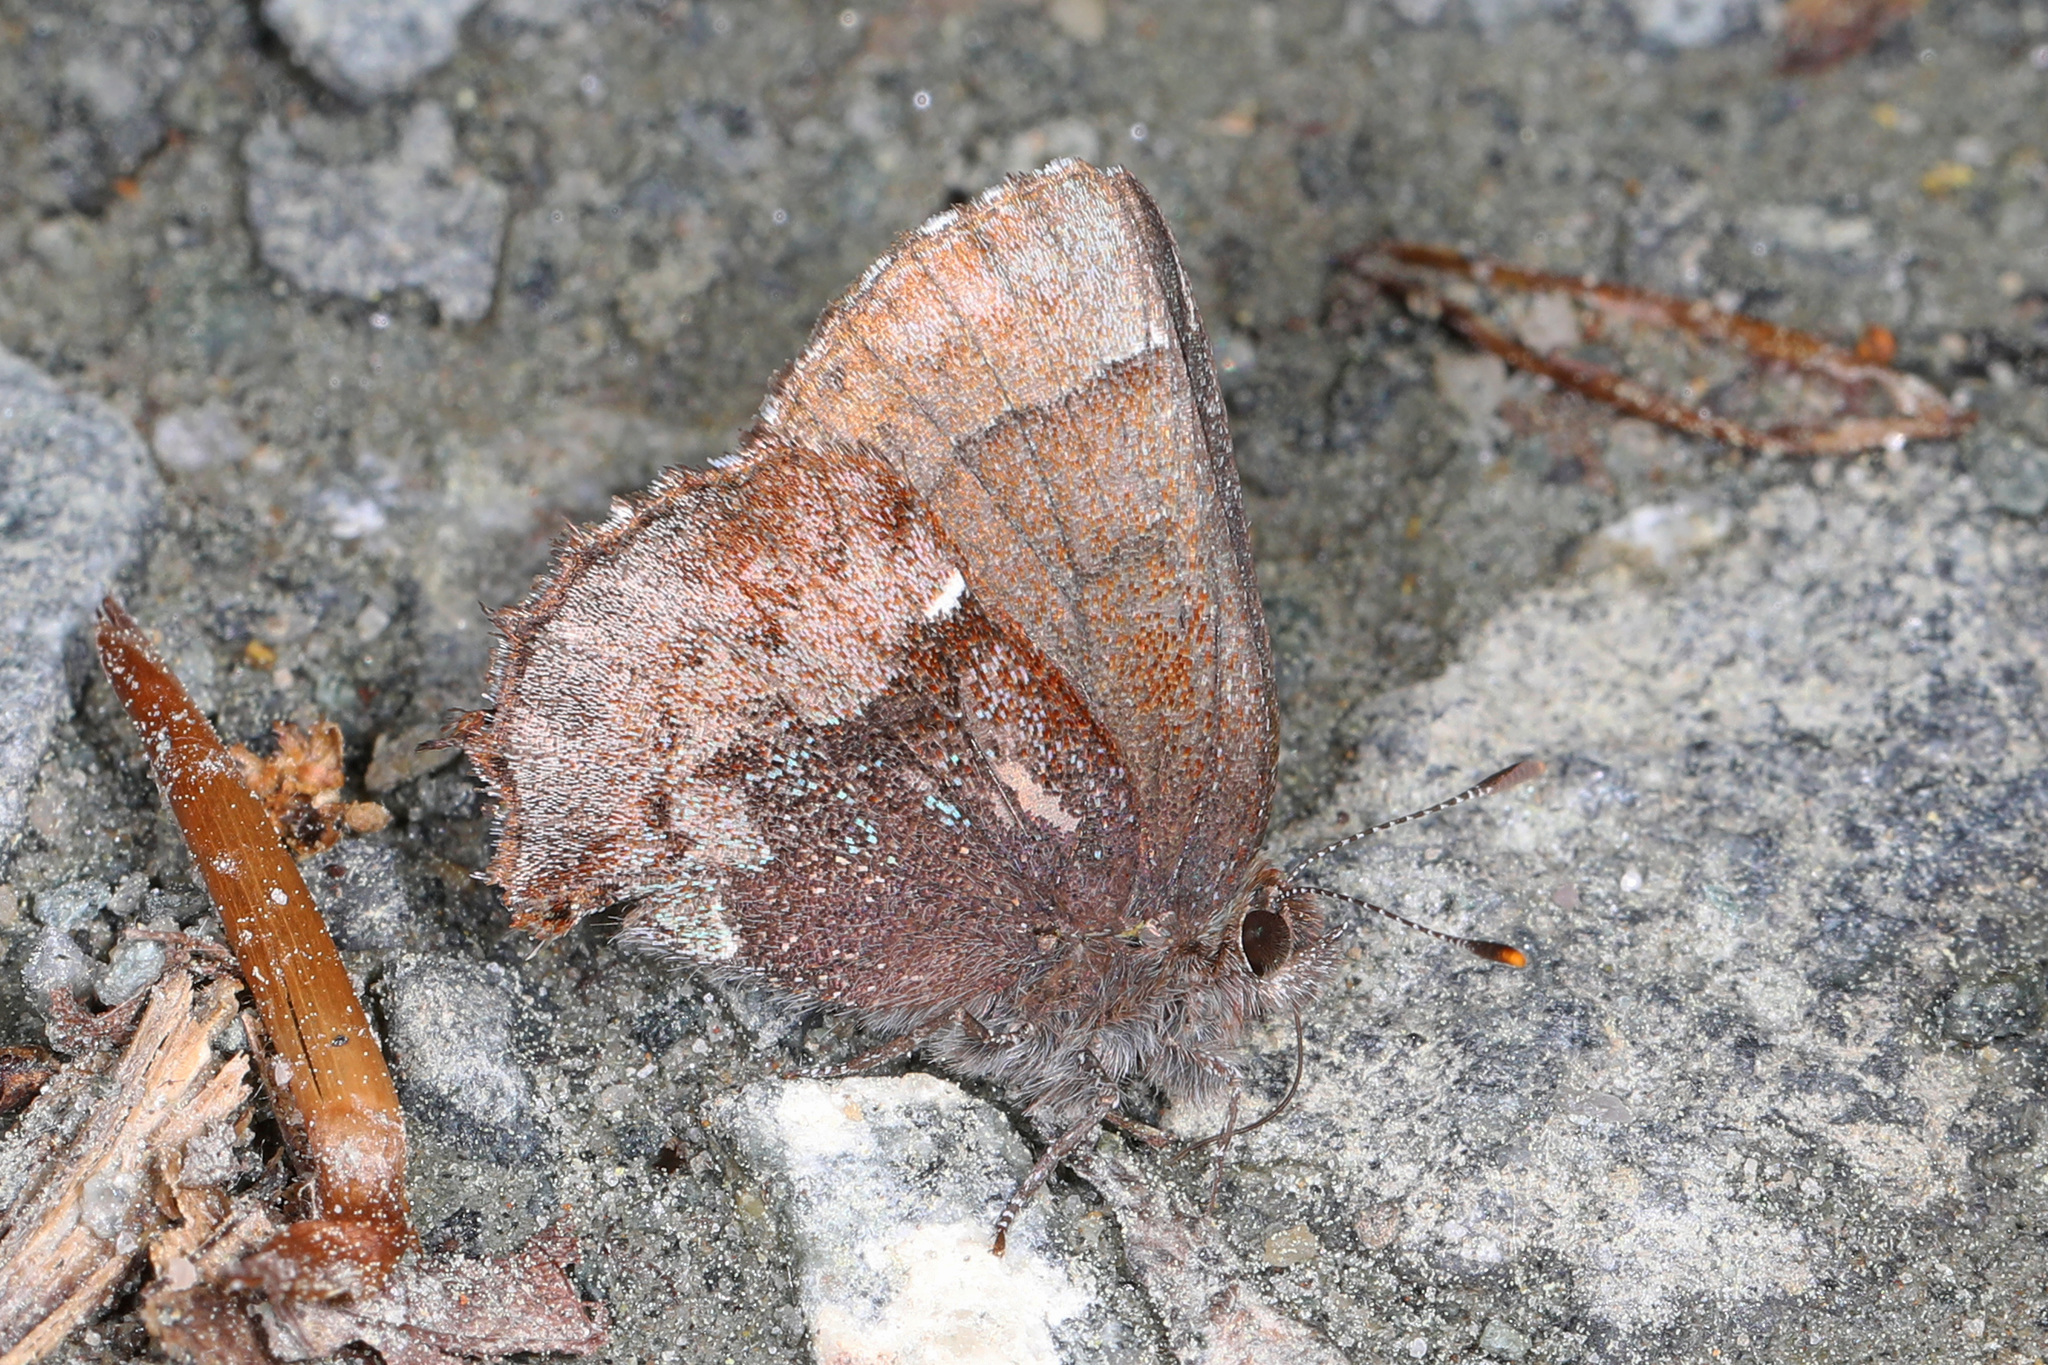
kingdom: Animalia
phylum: Arthropoda
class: Insecta
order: Lepidoptera
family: Lycaenidae
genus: Incisalia
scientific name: Incisalia henrici
